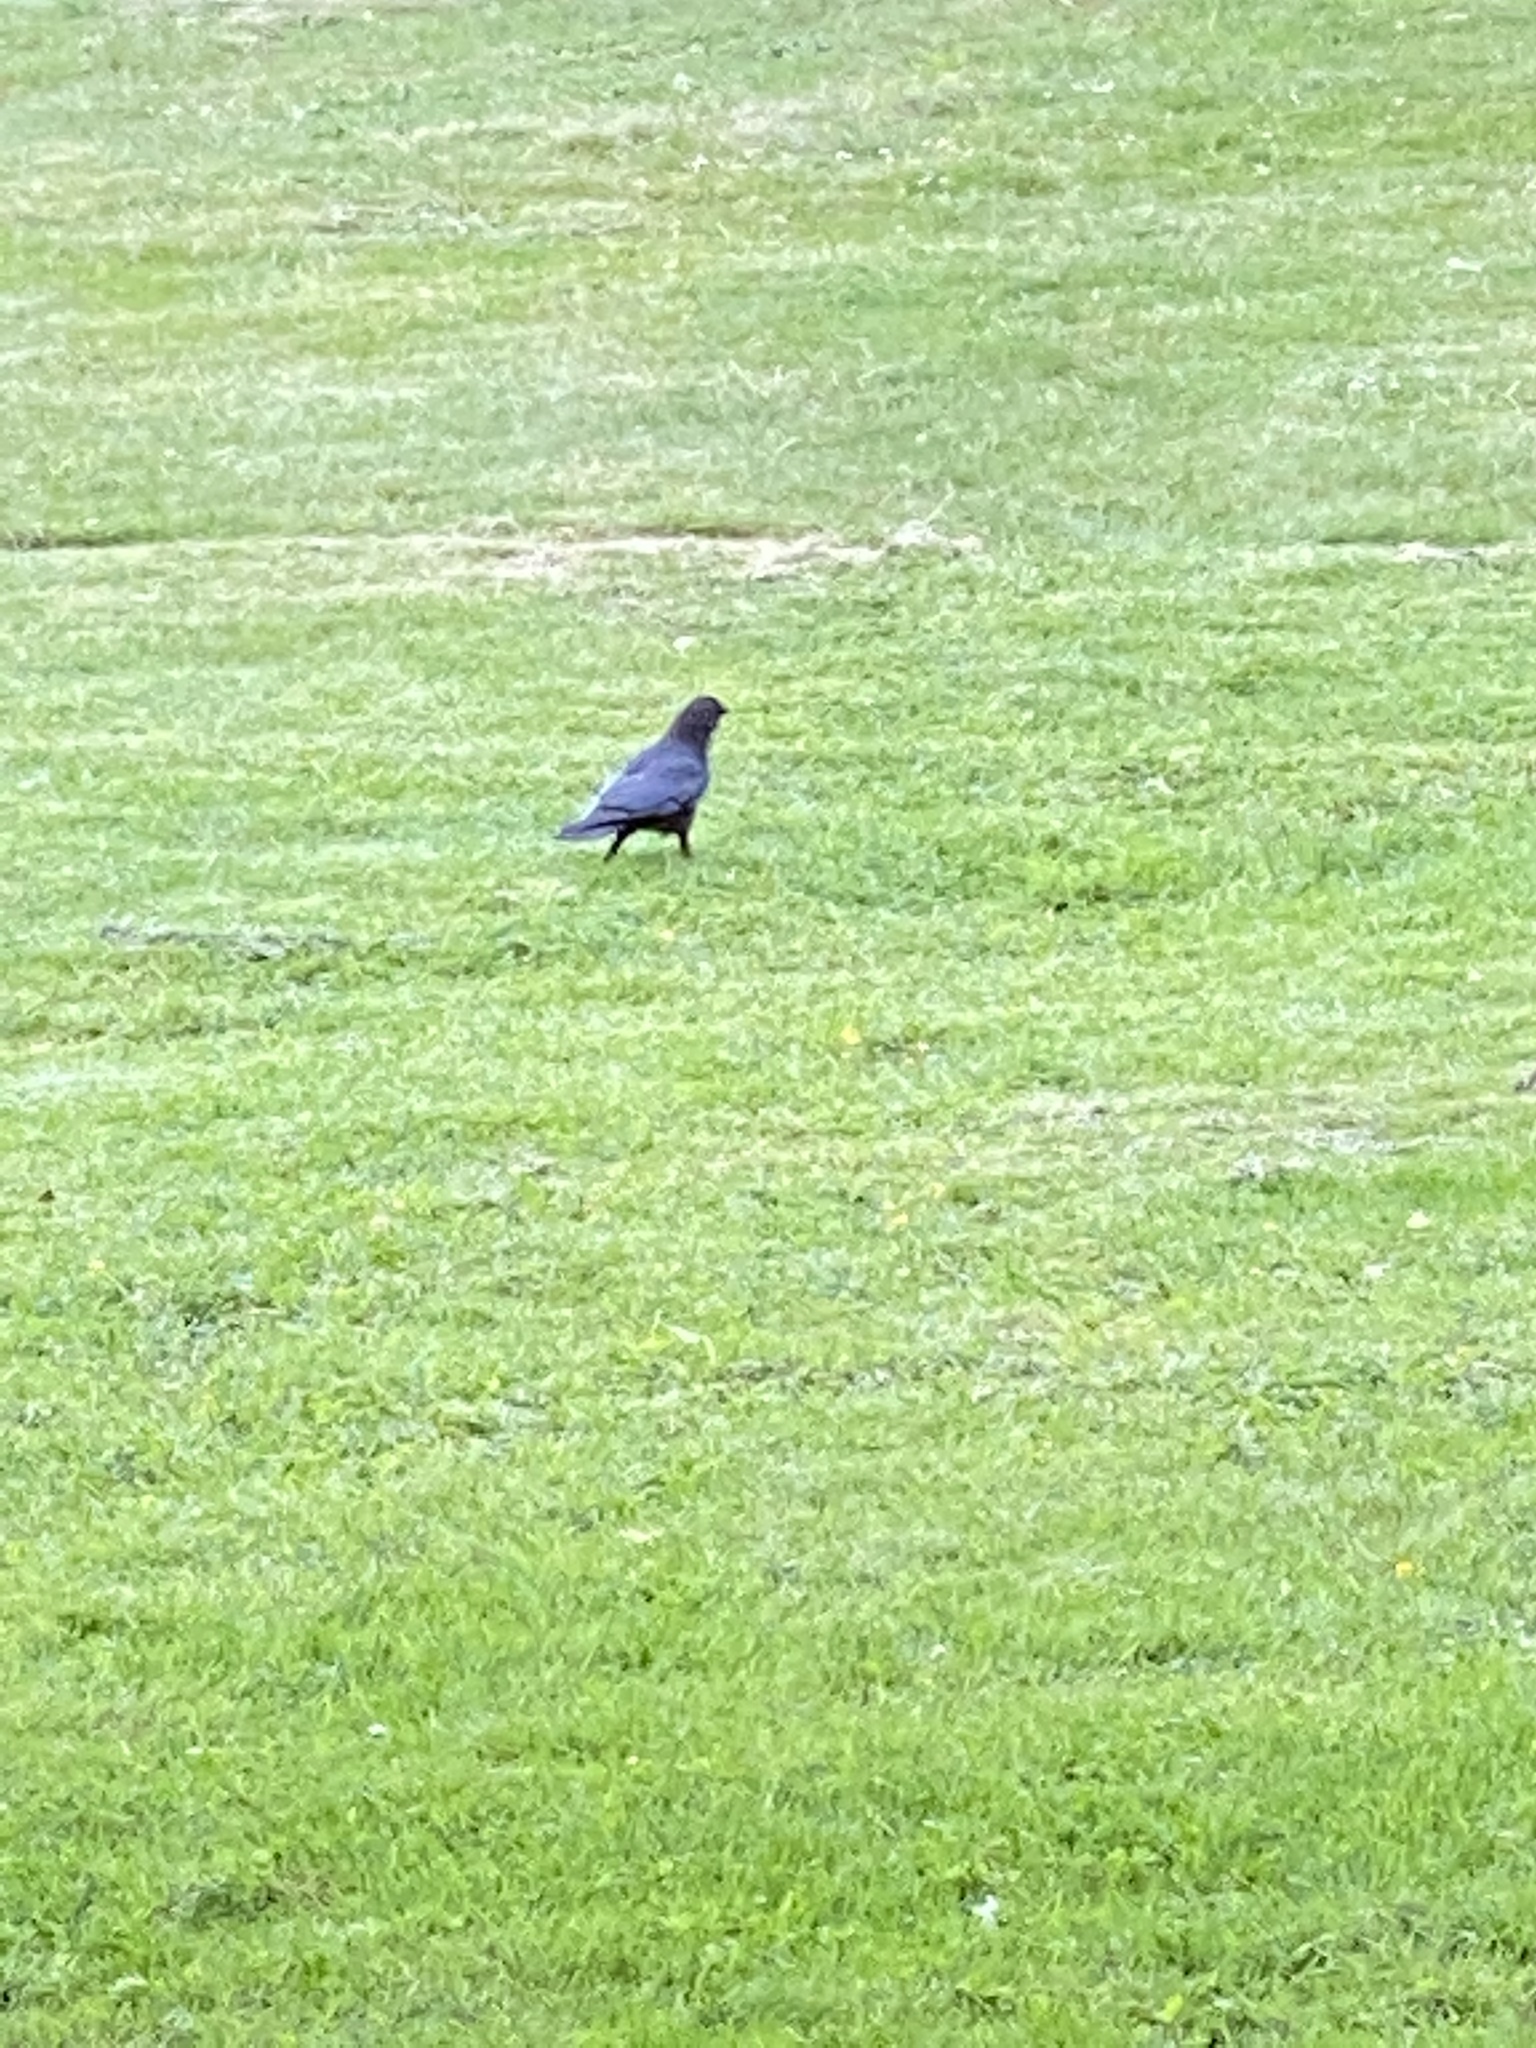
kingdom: Animalia
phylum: Chordata
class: Aves
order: Passeriformes
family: Corvidae
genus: Corvus
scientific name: Corvus brachyrhynchos
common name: American crow
